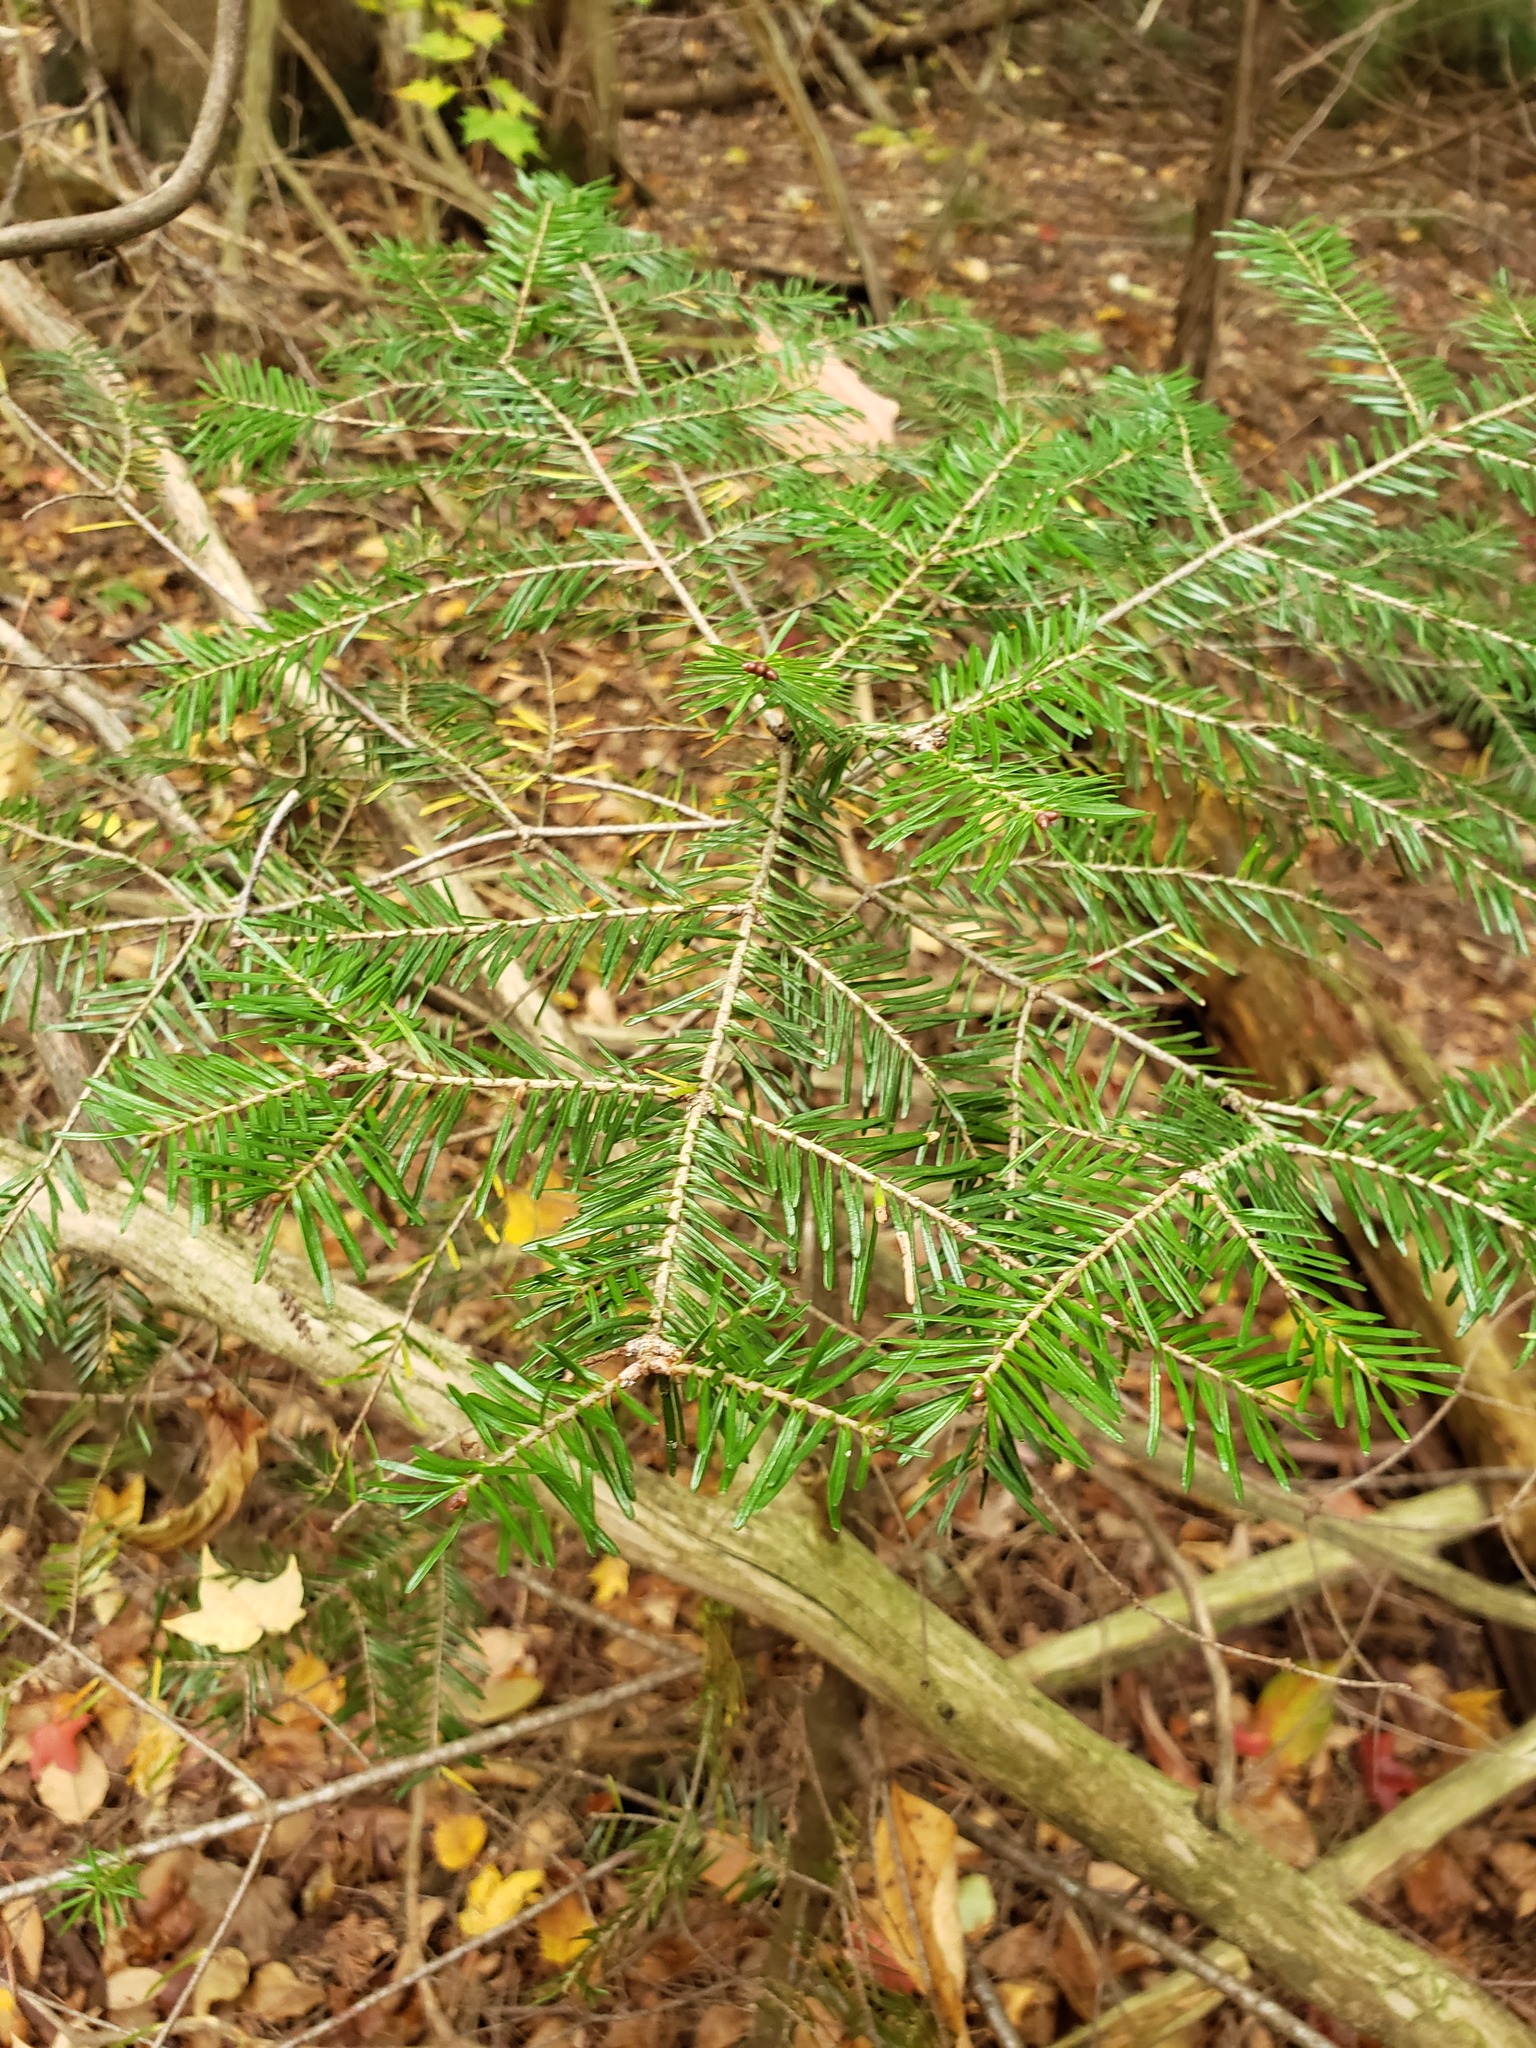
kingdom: Plantae
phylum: Tracheophyta
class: Pinopsida
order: Pinales
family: Pinaceae
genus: Abies
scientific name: Abies balsamea
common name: Balsam fir
